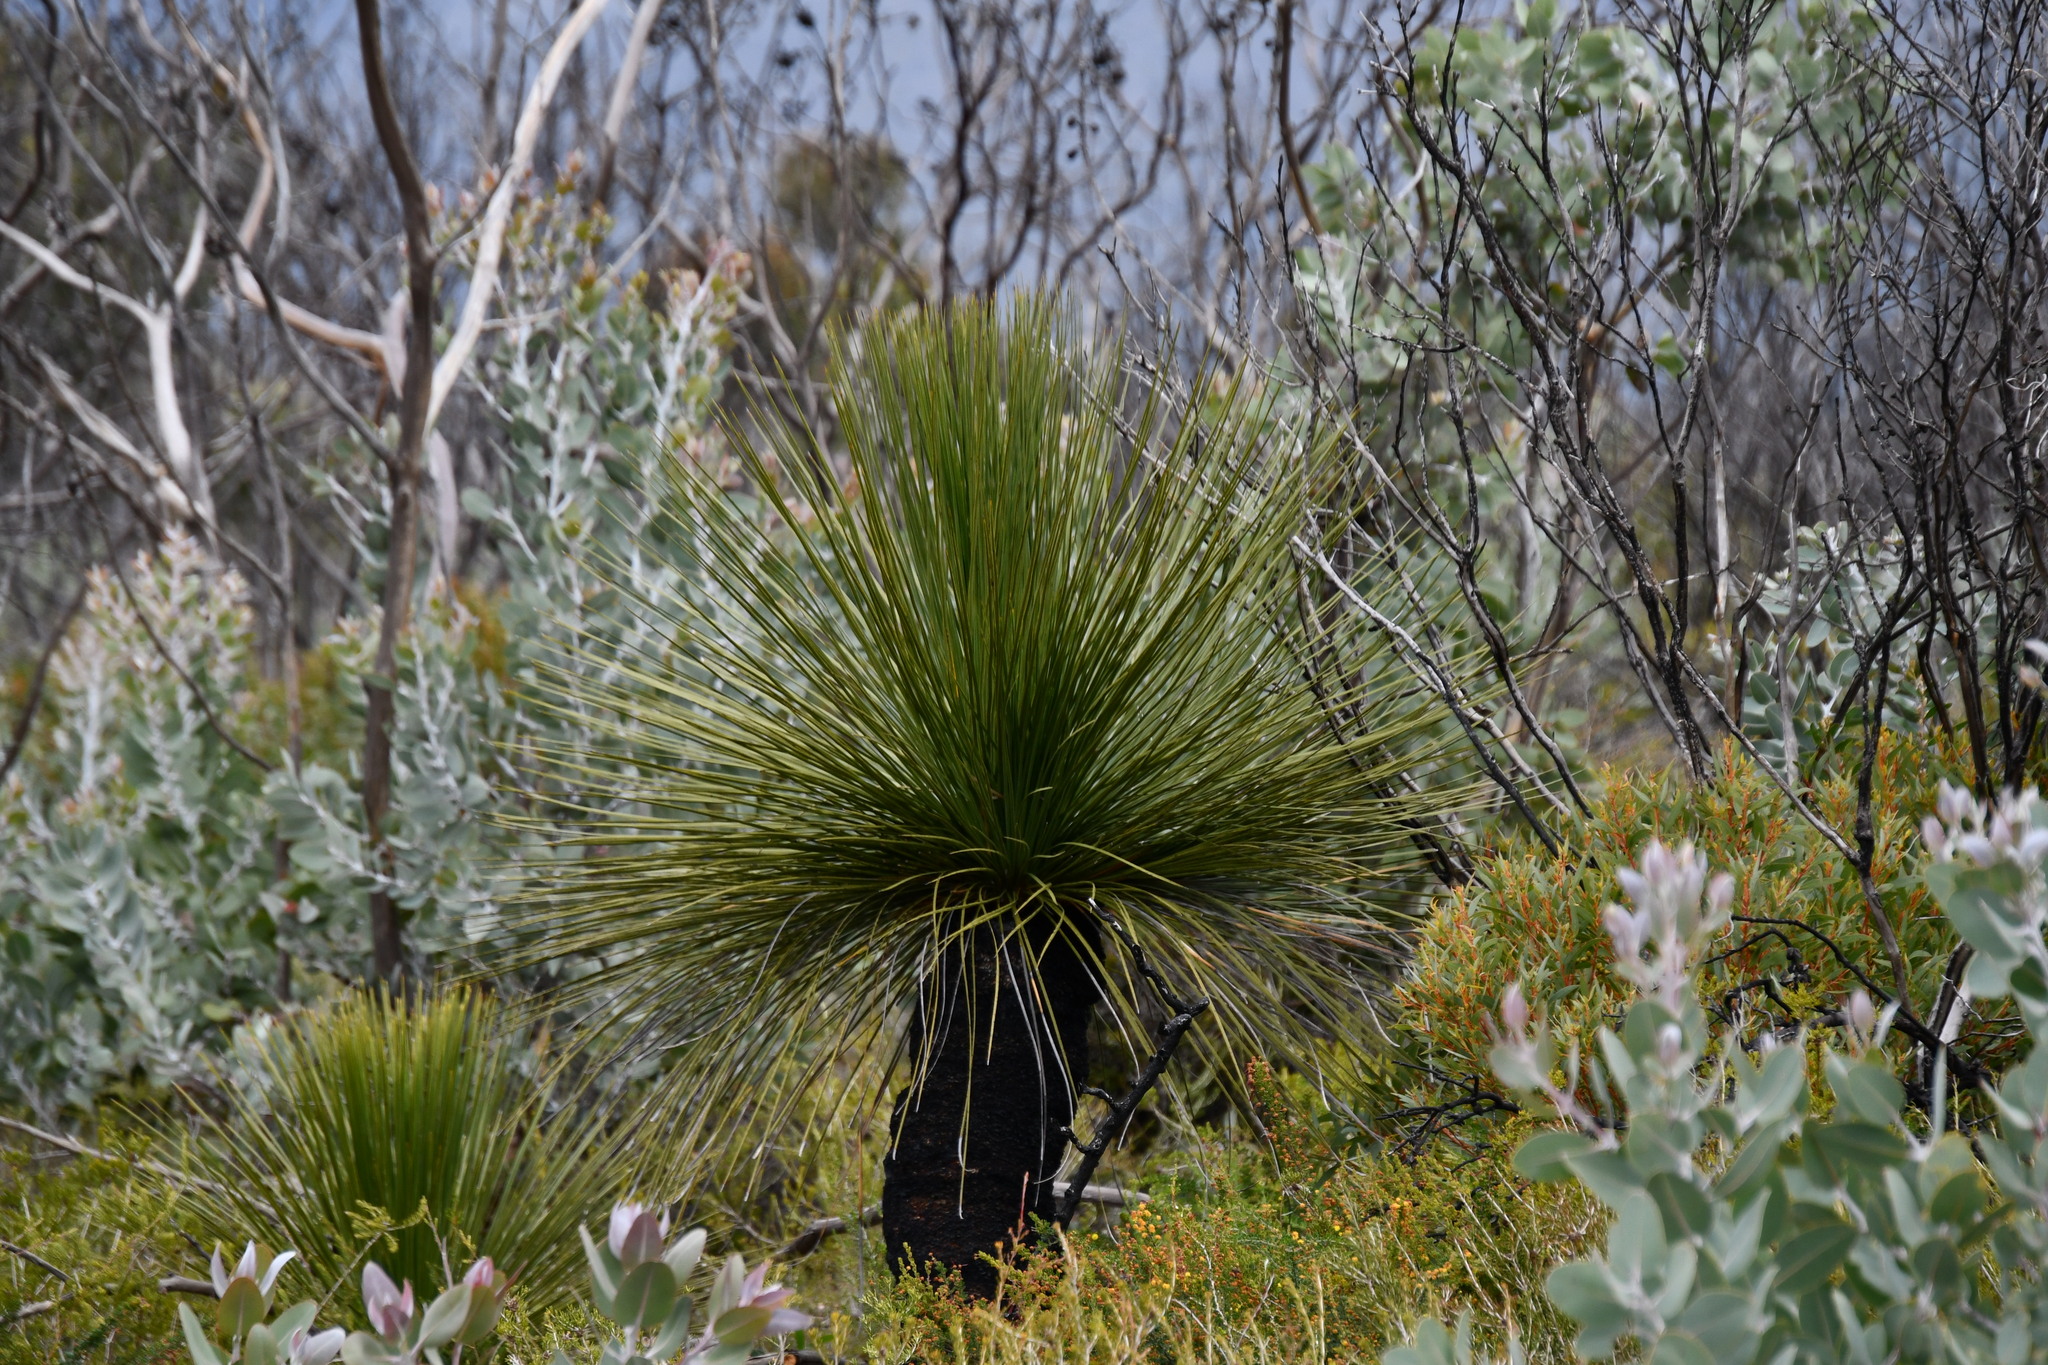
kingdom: Plantae
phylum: Tracheophyta
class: Liliopsida
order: Asparagales
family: Asphodelaceae
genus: Xanthorrhoea
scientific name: Xanthorrhoea platyphylla
